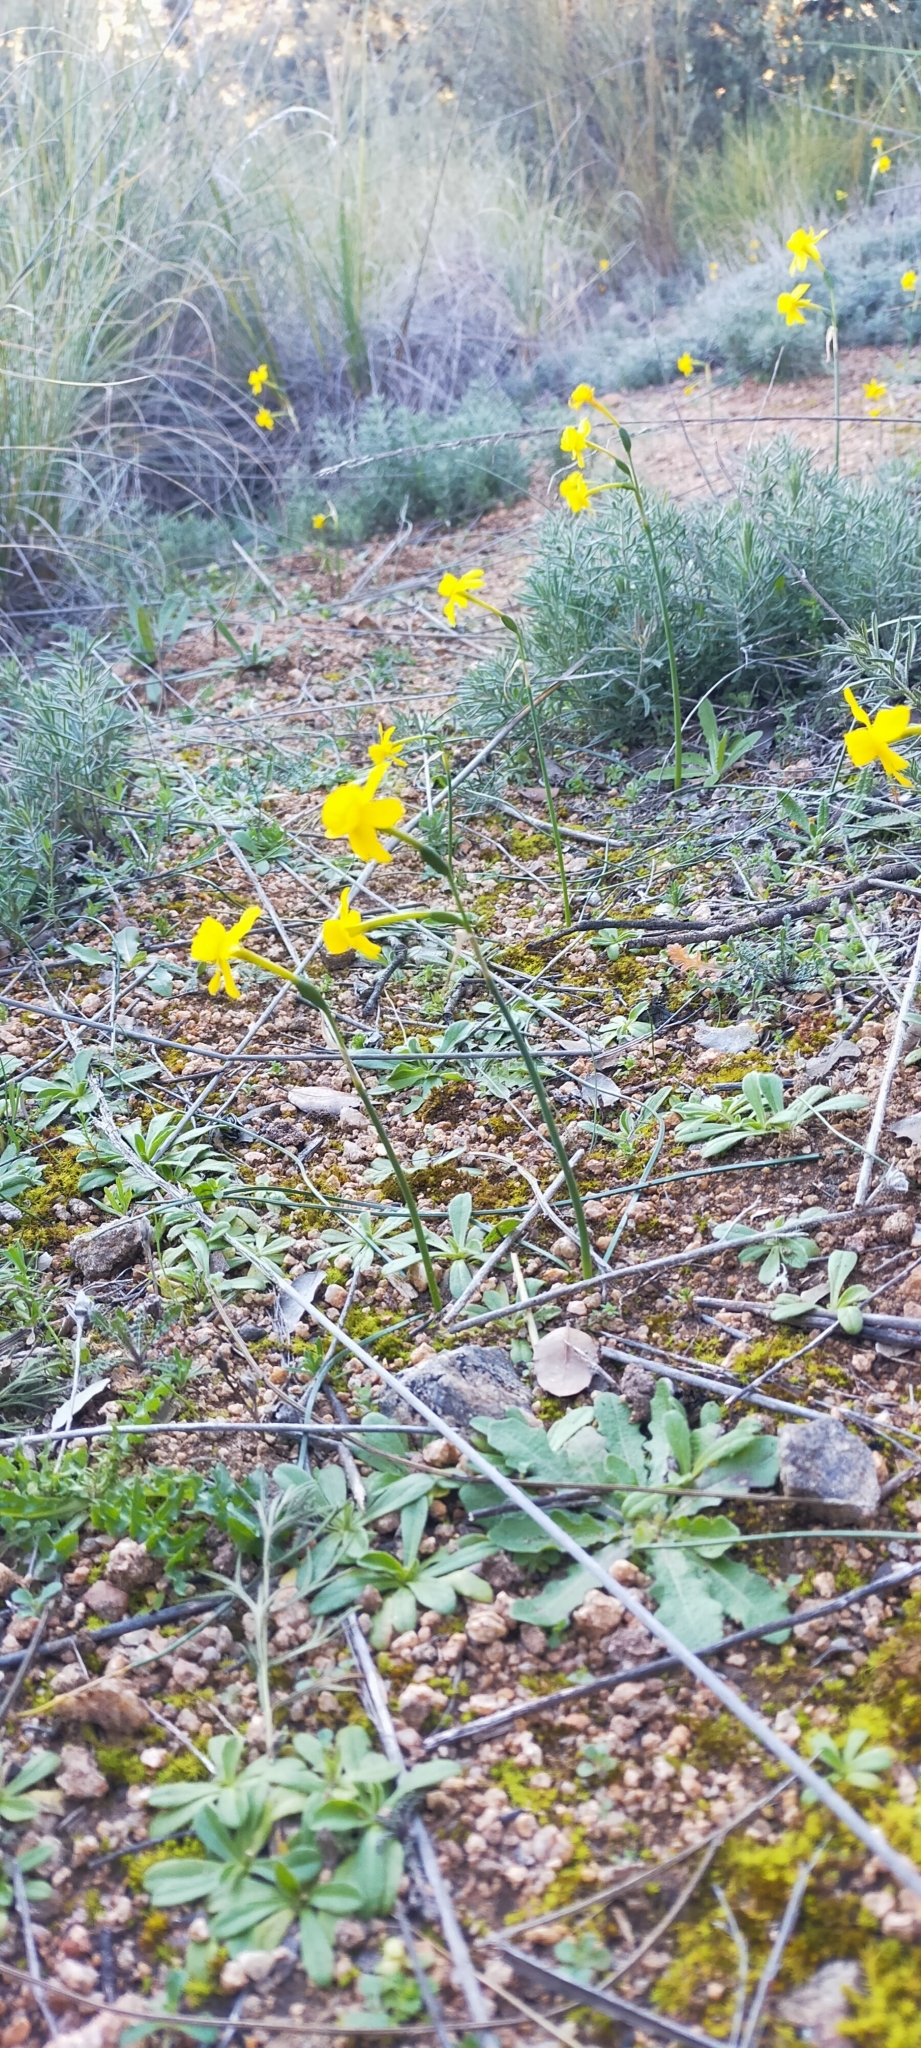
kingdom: Plantae
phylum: Tracheophyta
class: Liliopsida
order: Asparagales
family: Amaryllidaceae
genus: Narcissus
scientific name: Narcissus flavus
